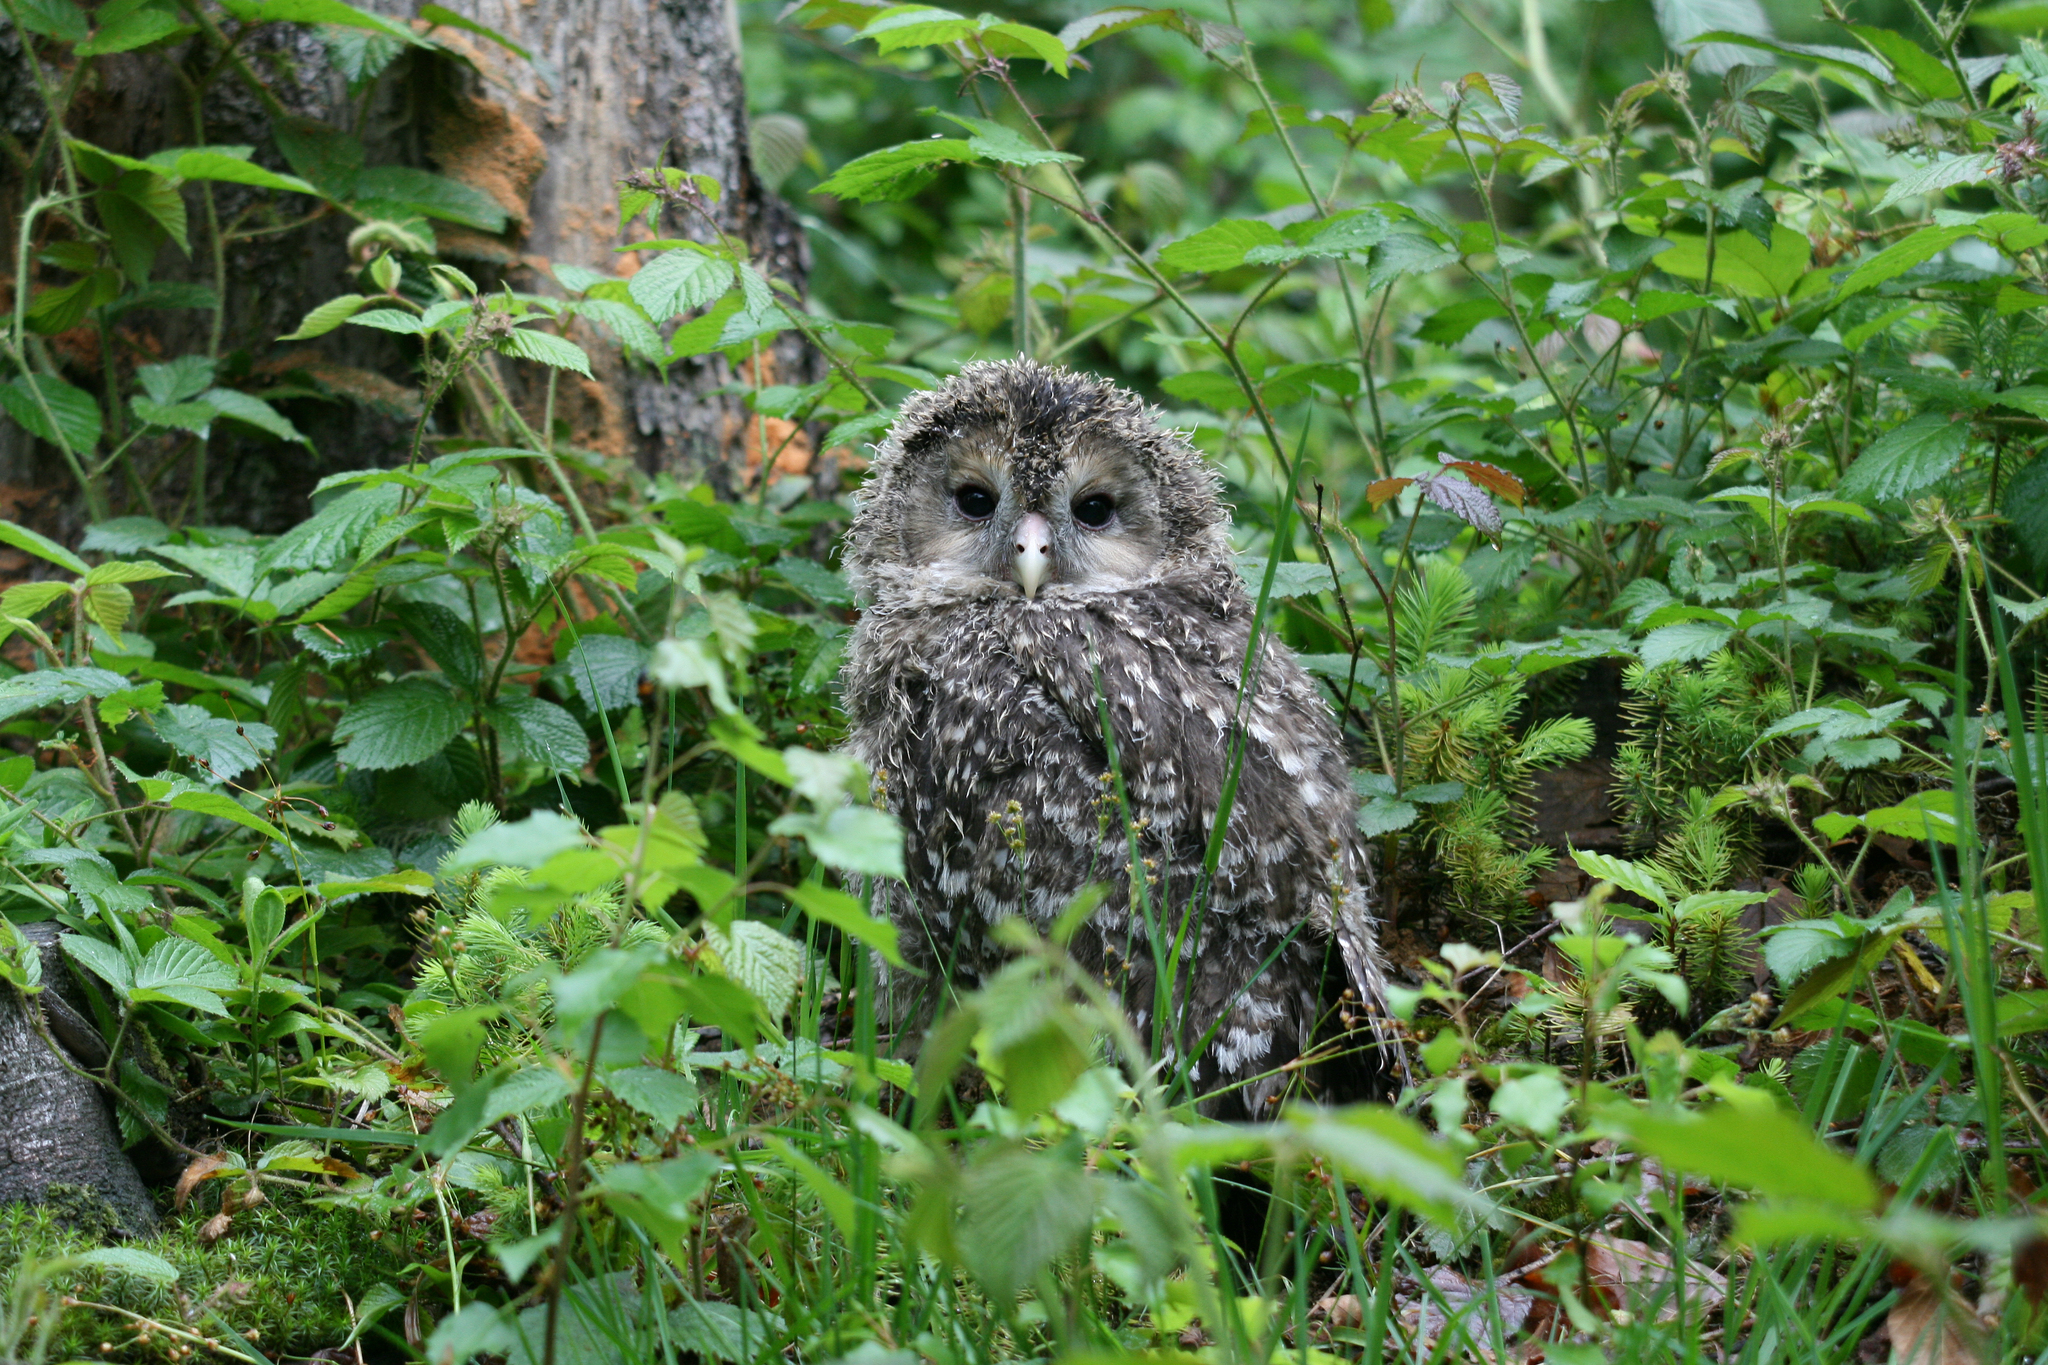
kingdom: Animalia
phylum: Chordata
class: Aves
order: Strigiformes
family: Strigidae
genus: Strix
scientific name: Strix uralensis
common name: Ural owl
